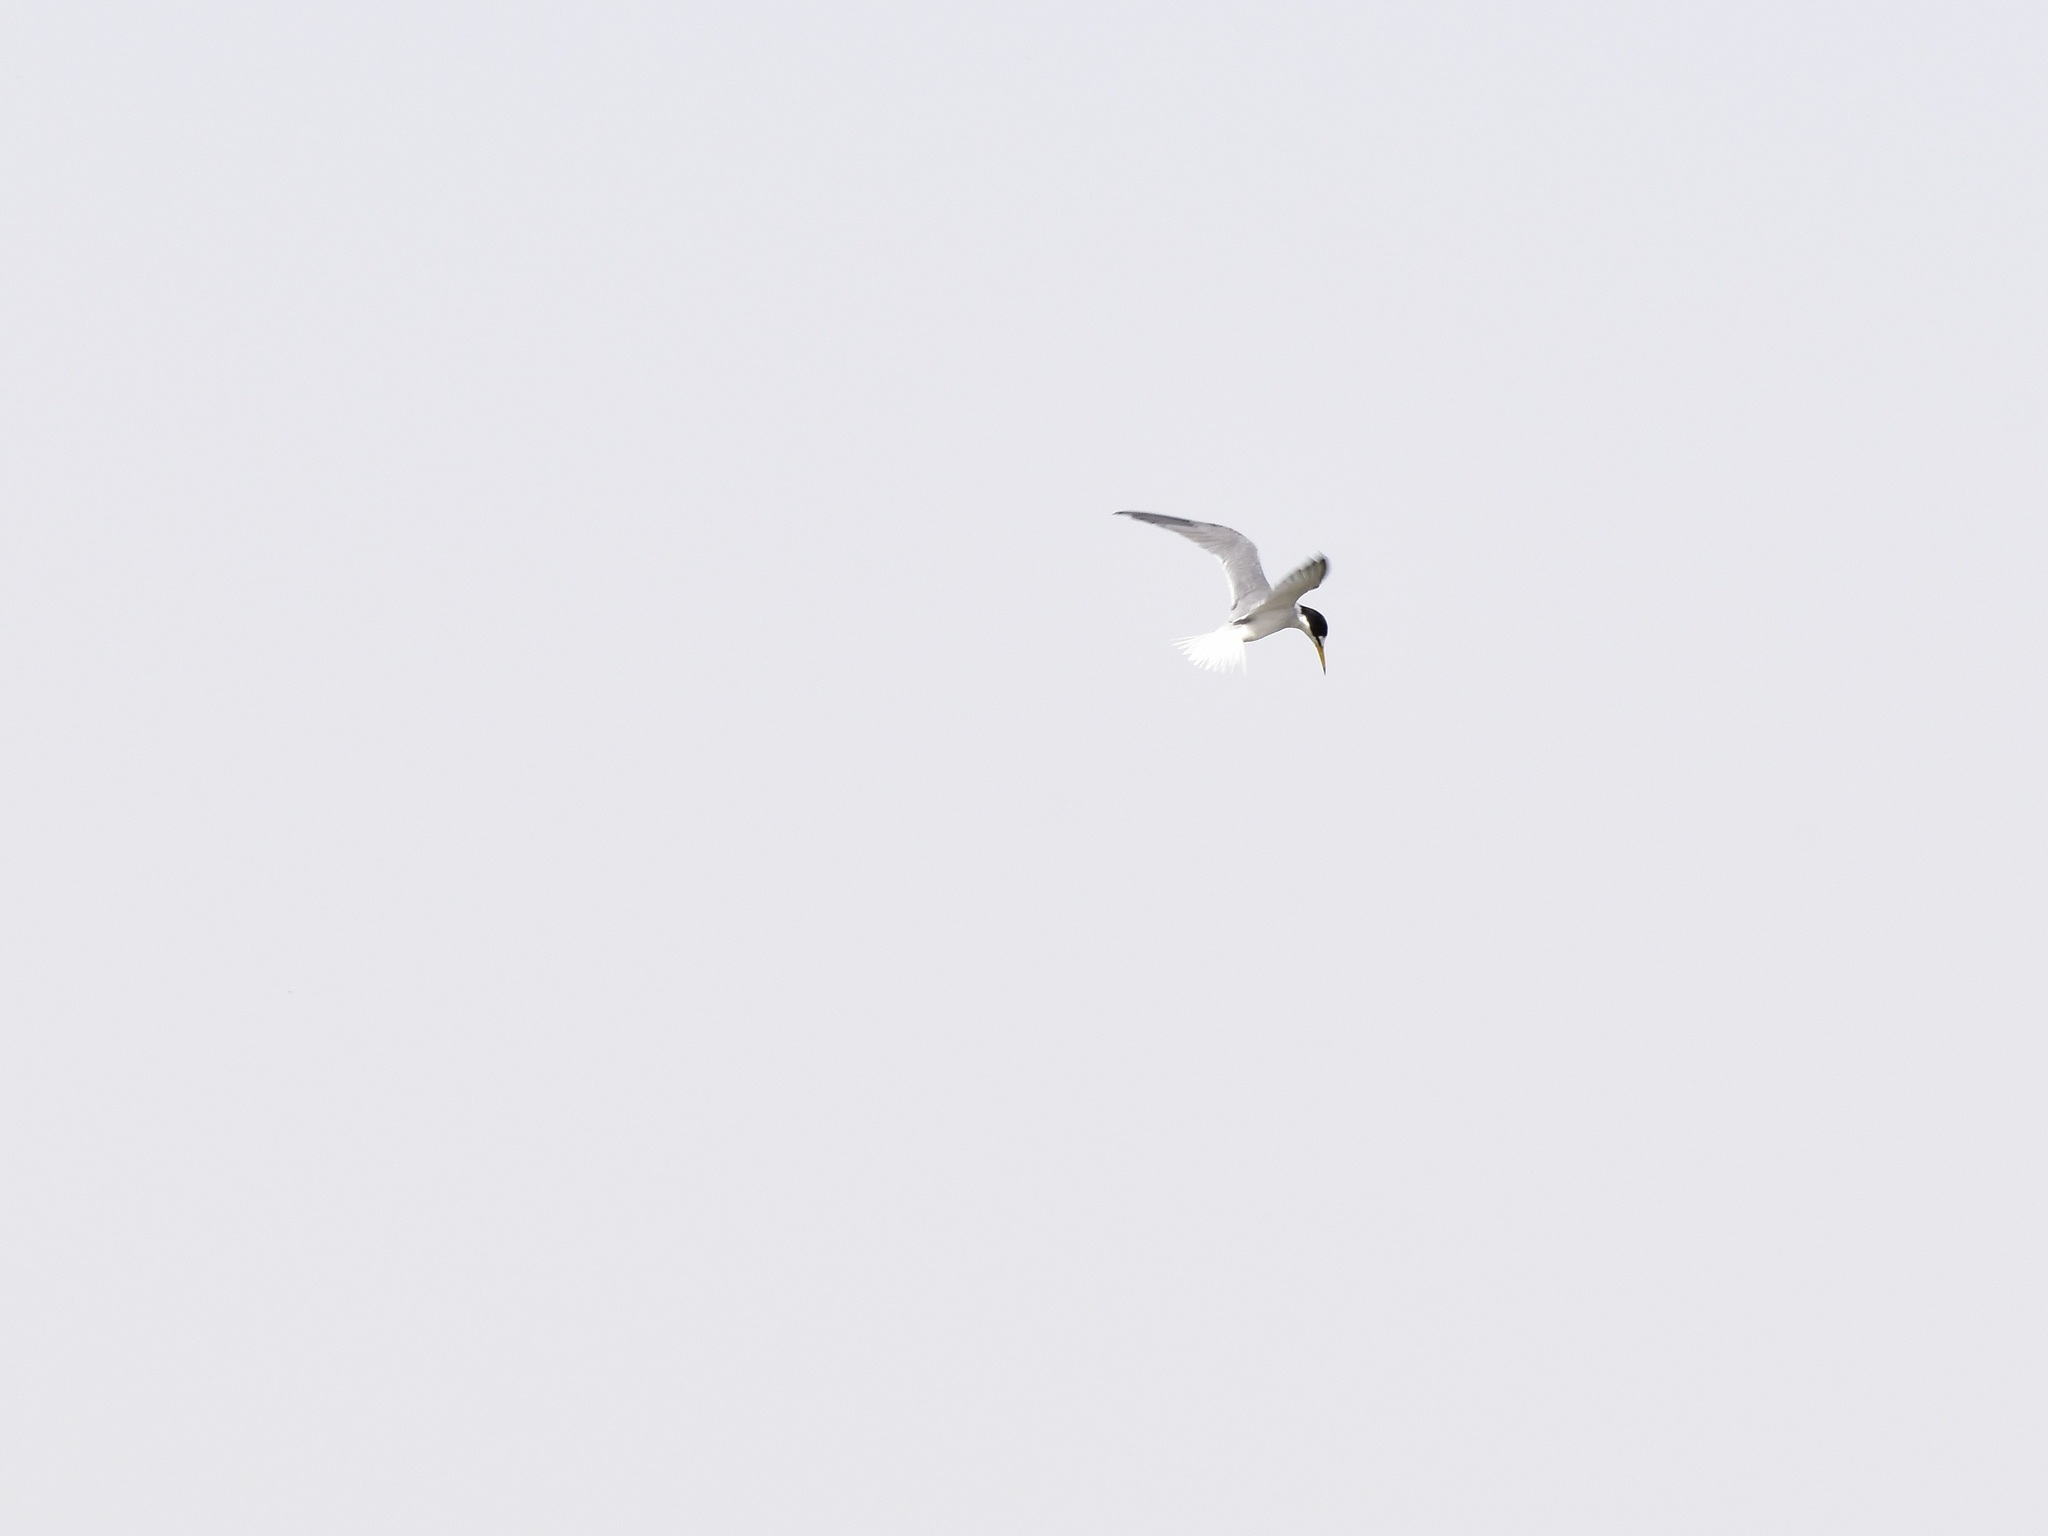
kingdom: Animalia
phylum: Chordata
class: Aves
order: Charadriiformes
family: Laridae
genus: Sternula
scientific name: Sternula albifrons
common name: Little tern
